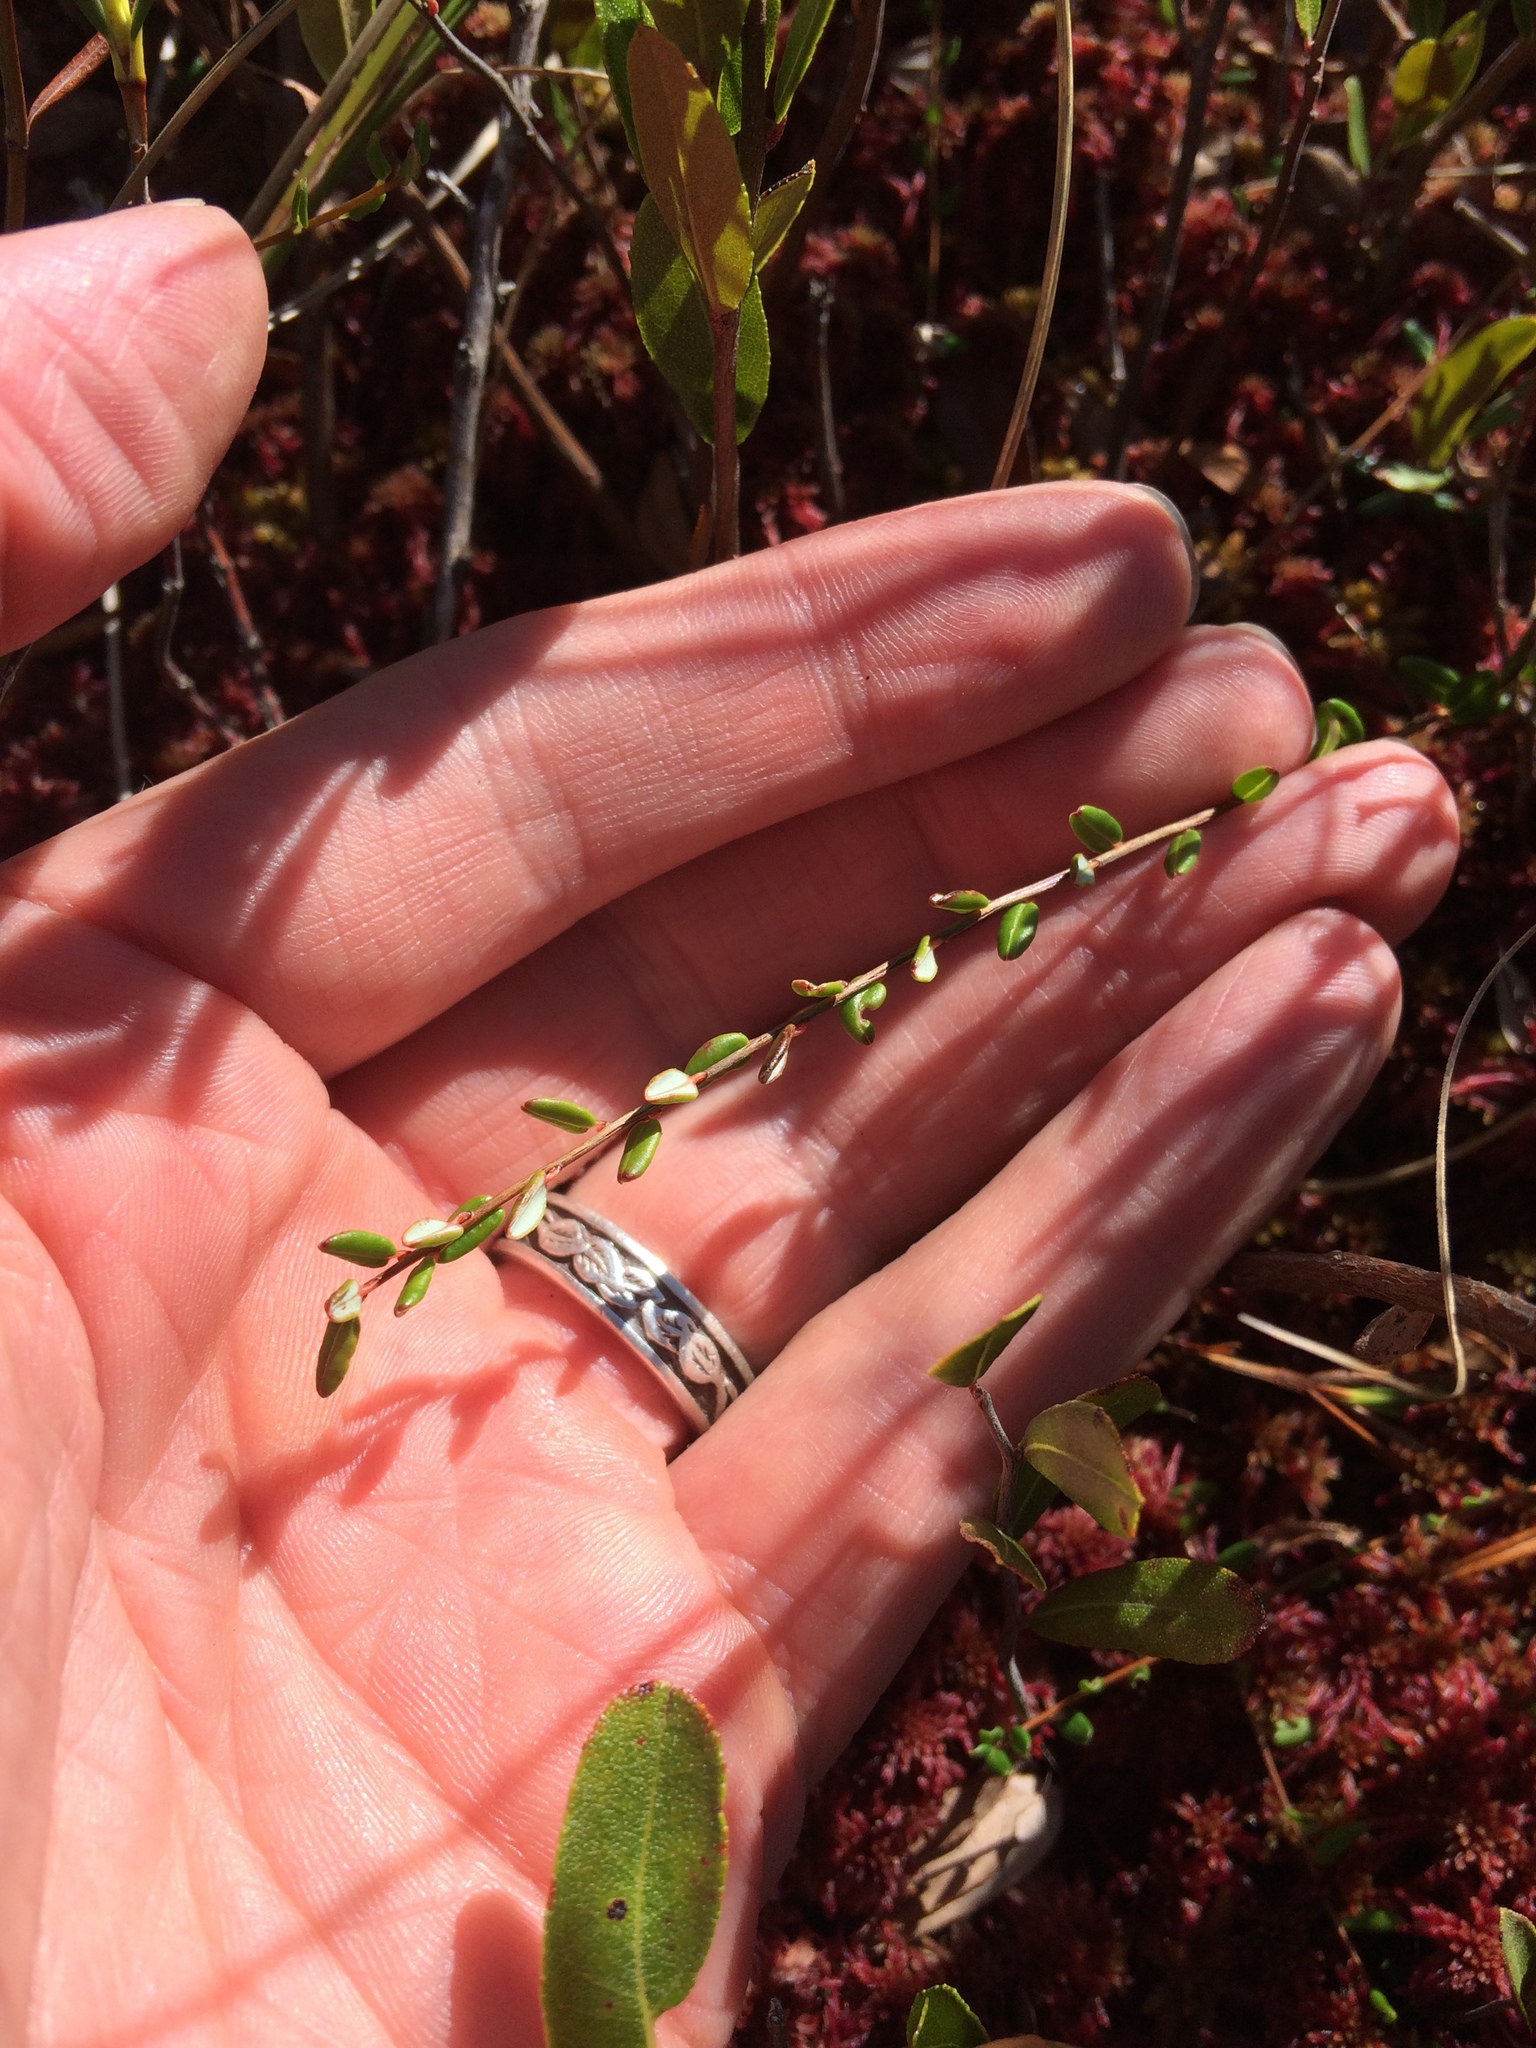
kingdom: Plantae
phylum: Tracheophyta
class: Magnoliopsida
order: Ericales
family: Ericaceae
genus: Vaccinium
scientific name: Vaccinium oxycoccos
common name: Cranberry
